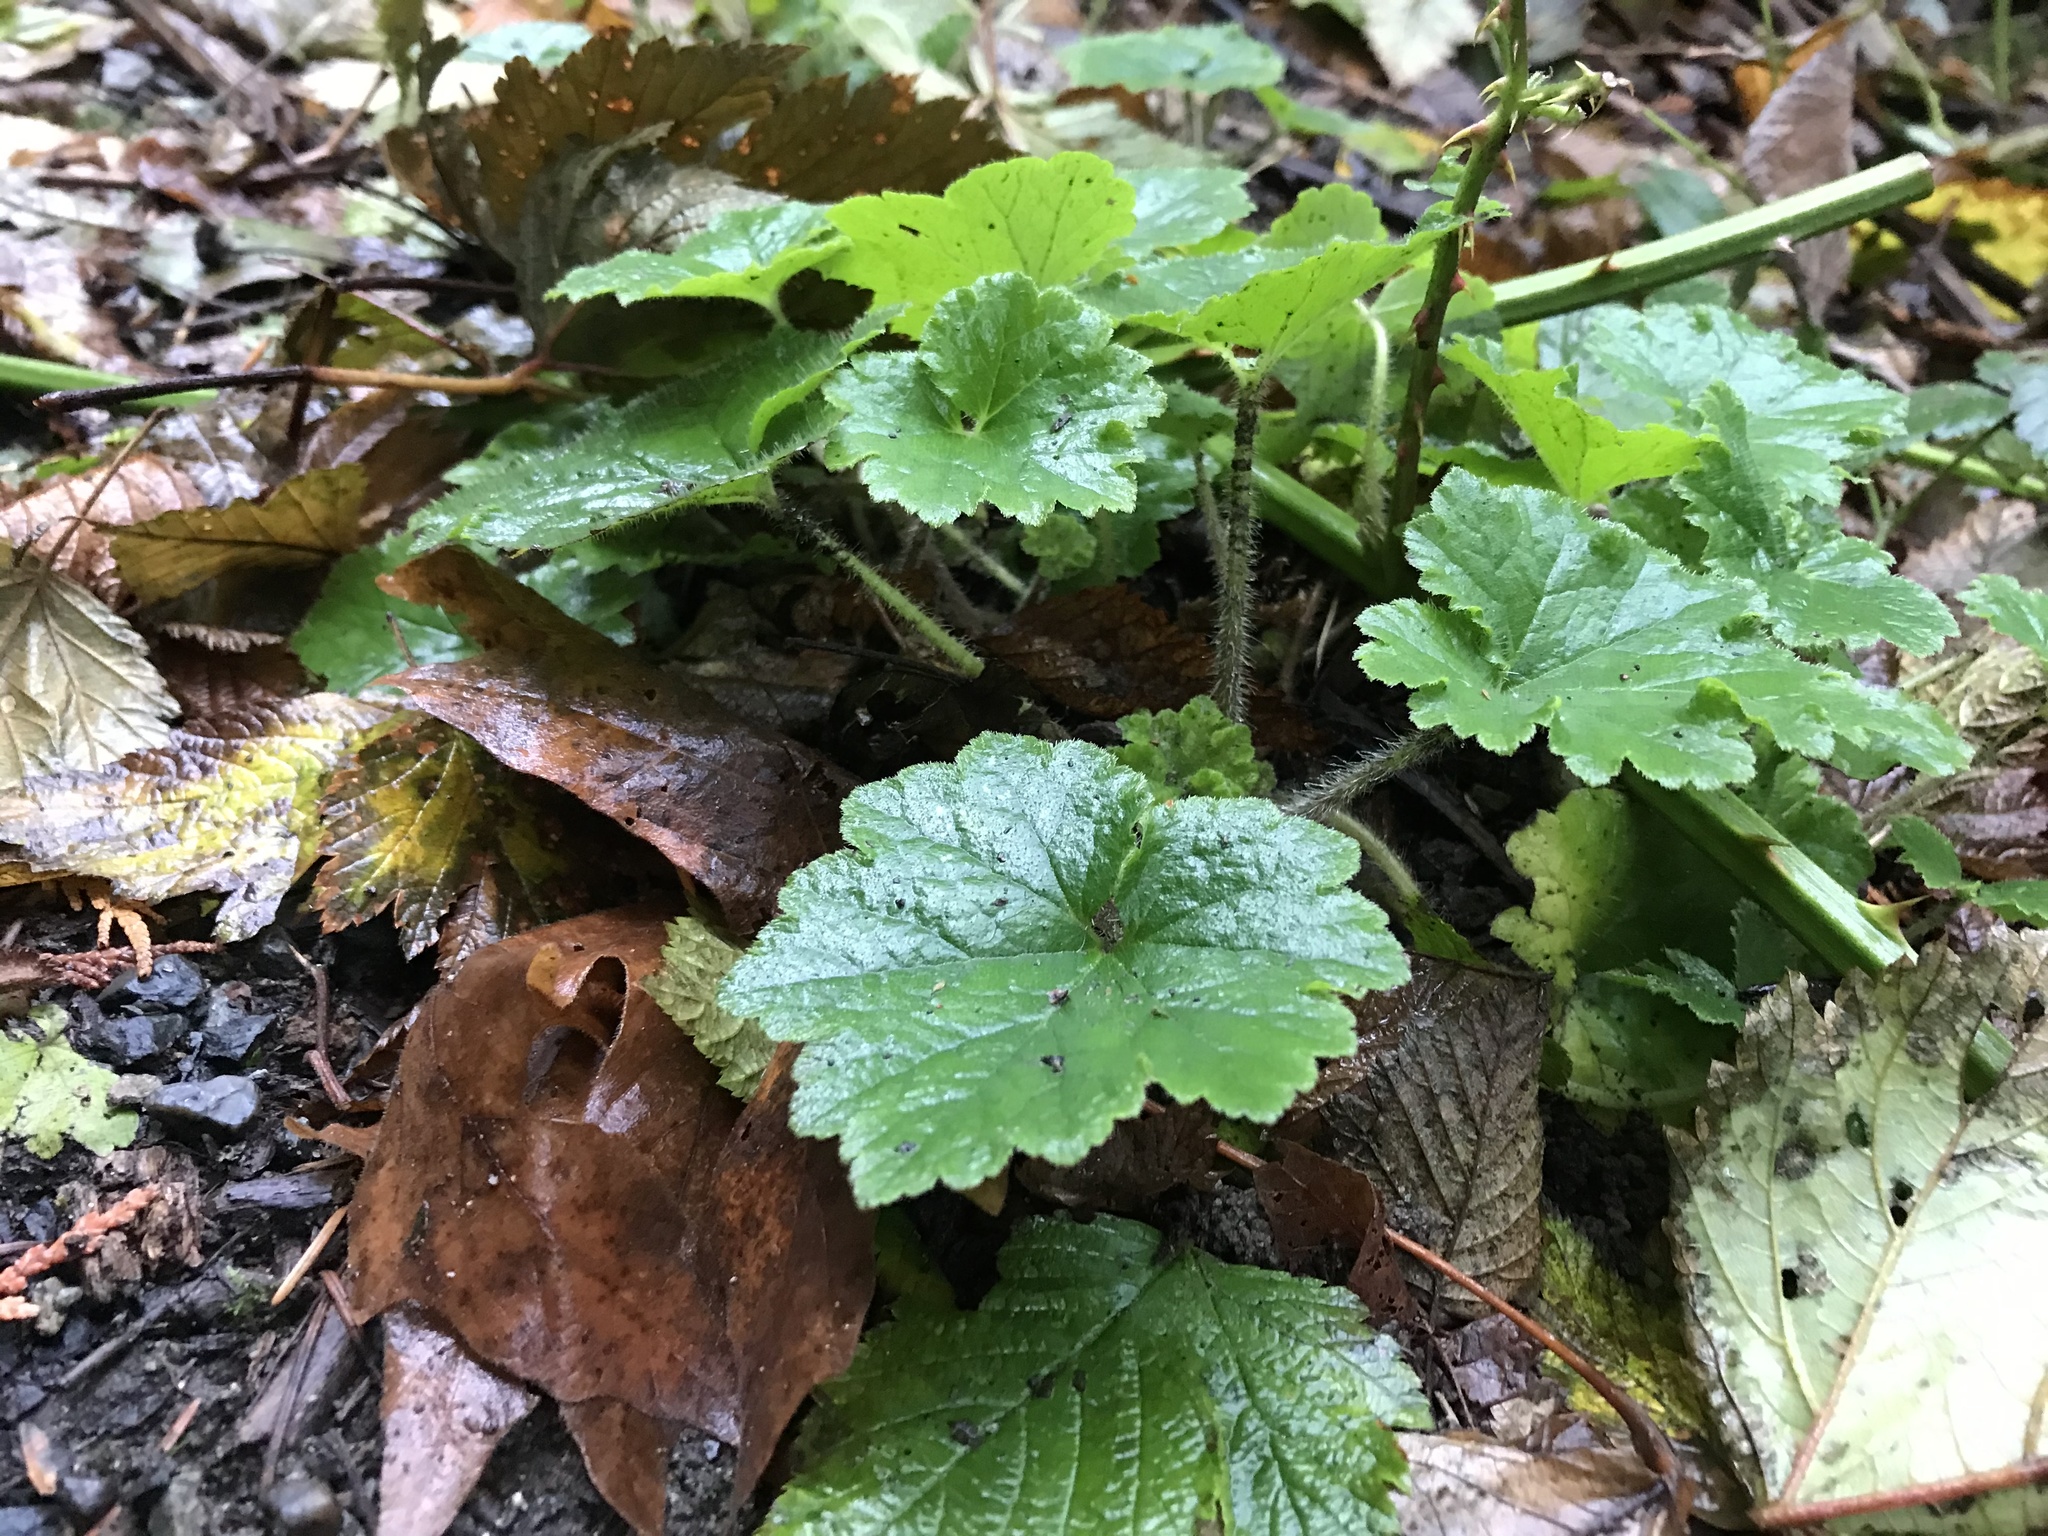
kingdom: Plantae
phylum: Tracheophyta
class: Magnoliopsida
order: Saxifragales
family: Saxifragaceae
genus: Tellima
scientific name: Tellima grandiflora
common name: Fringecups
